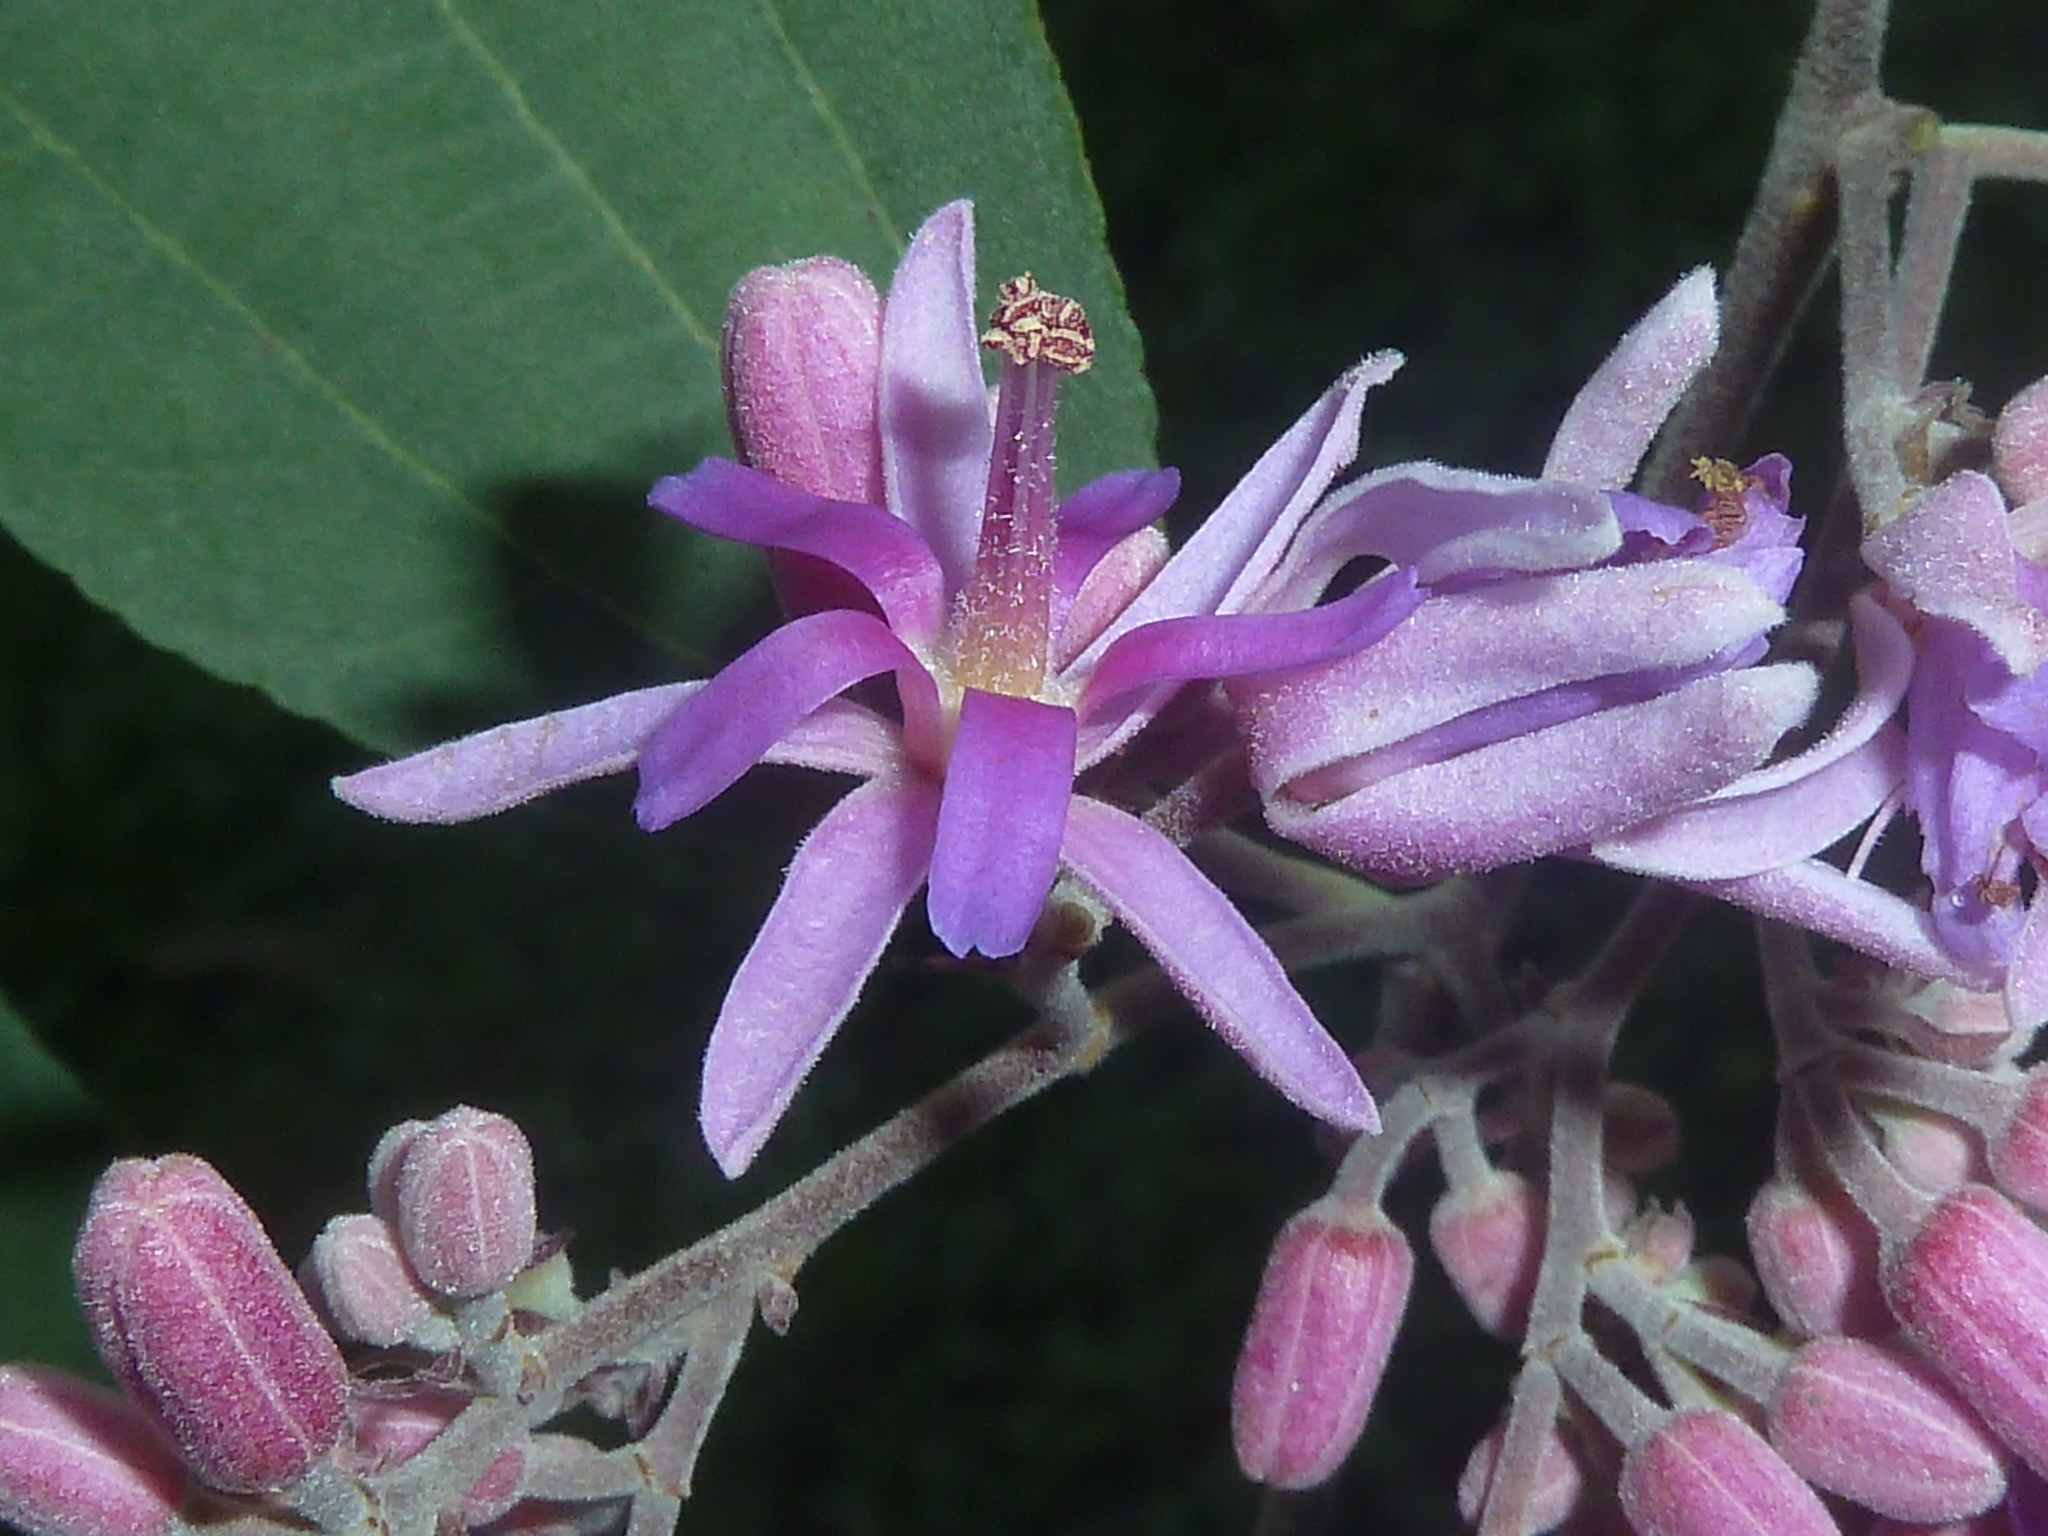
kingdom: Plantae
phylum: Tracheophyta
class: Magnoliopsida
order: Malvales
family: Malvaceae
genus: Trichospermum
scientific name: Trichospermum galeottii
